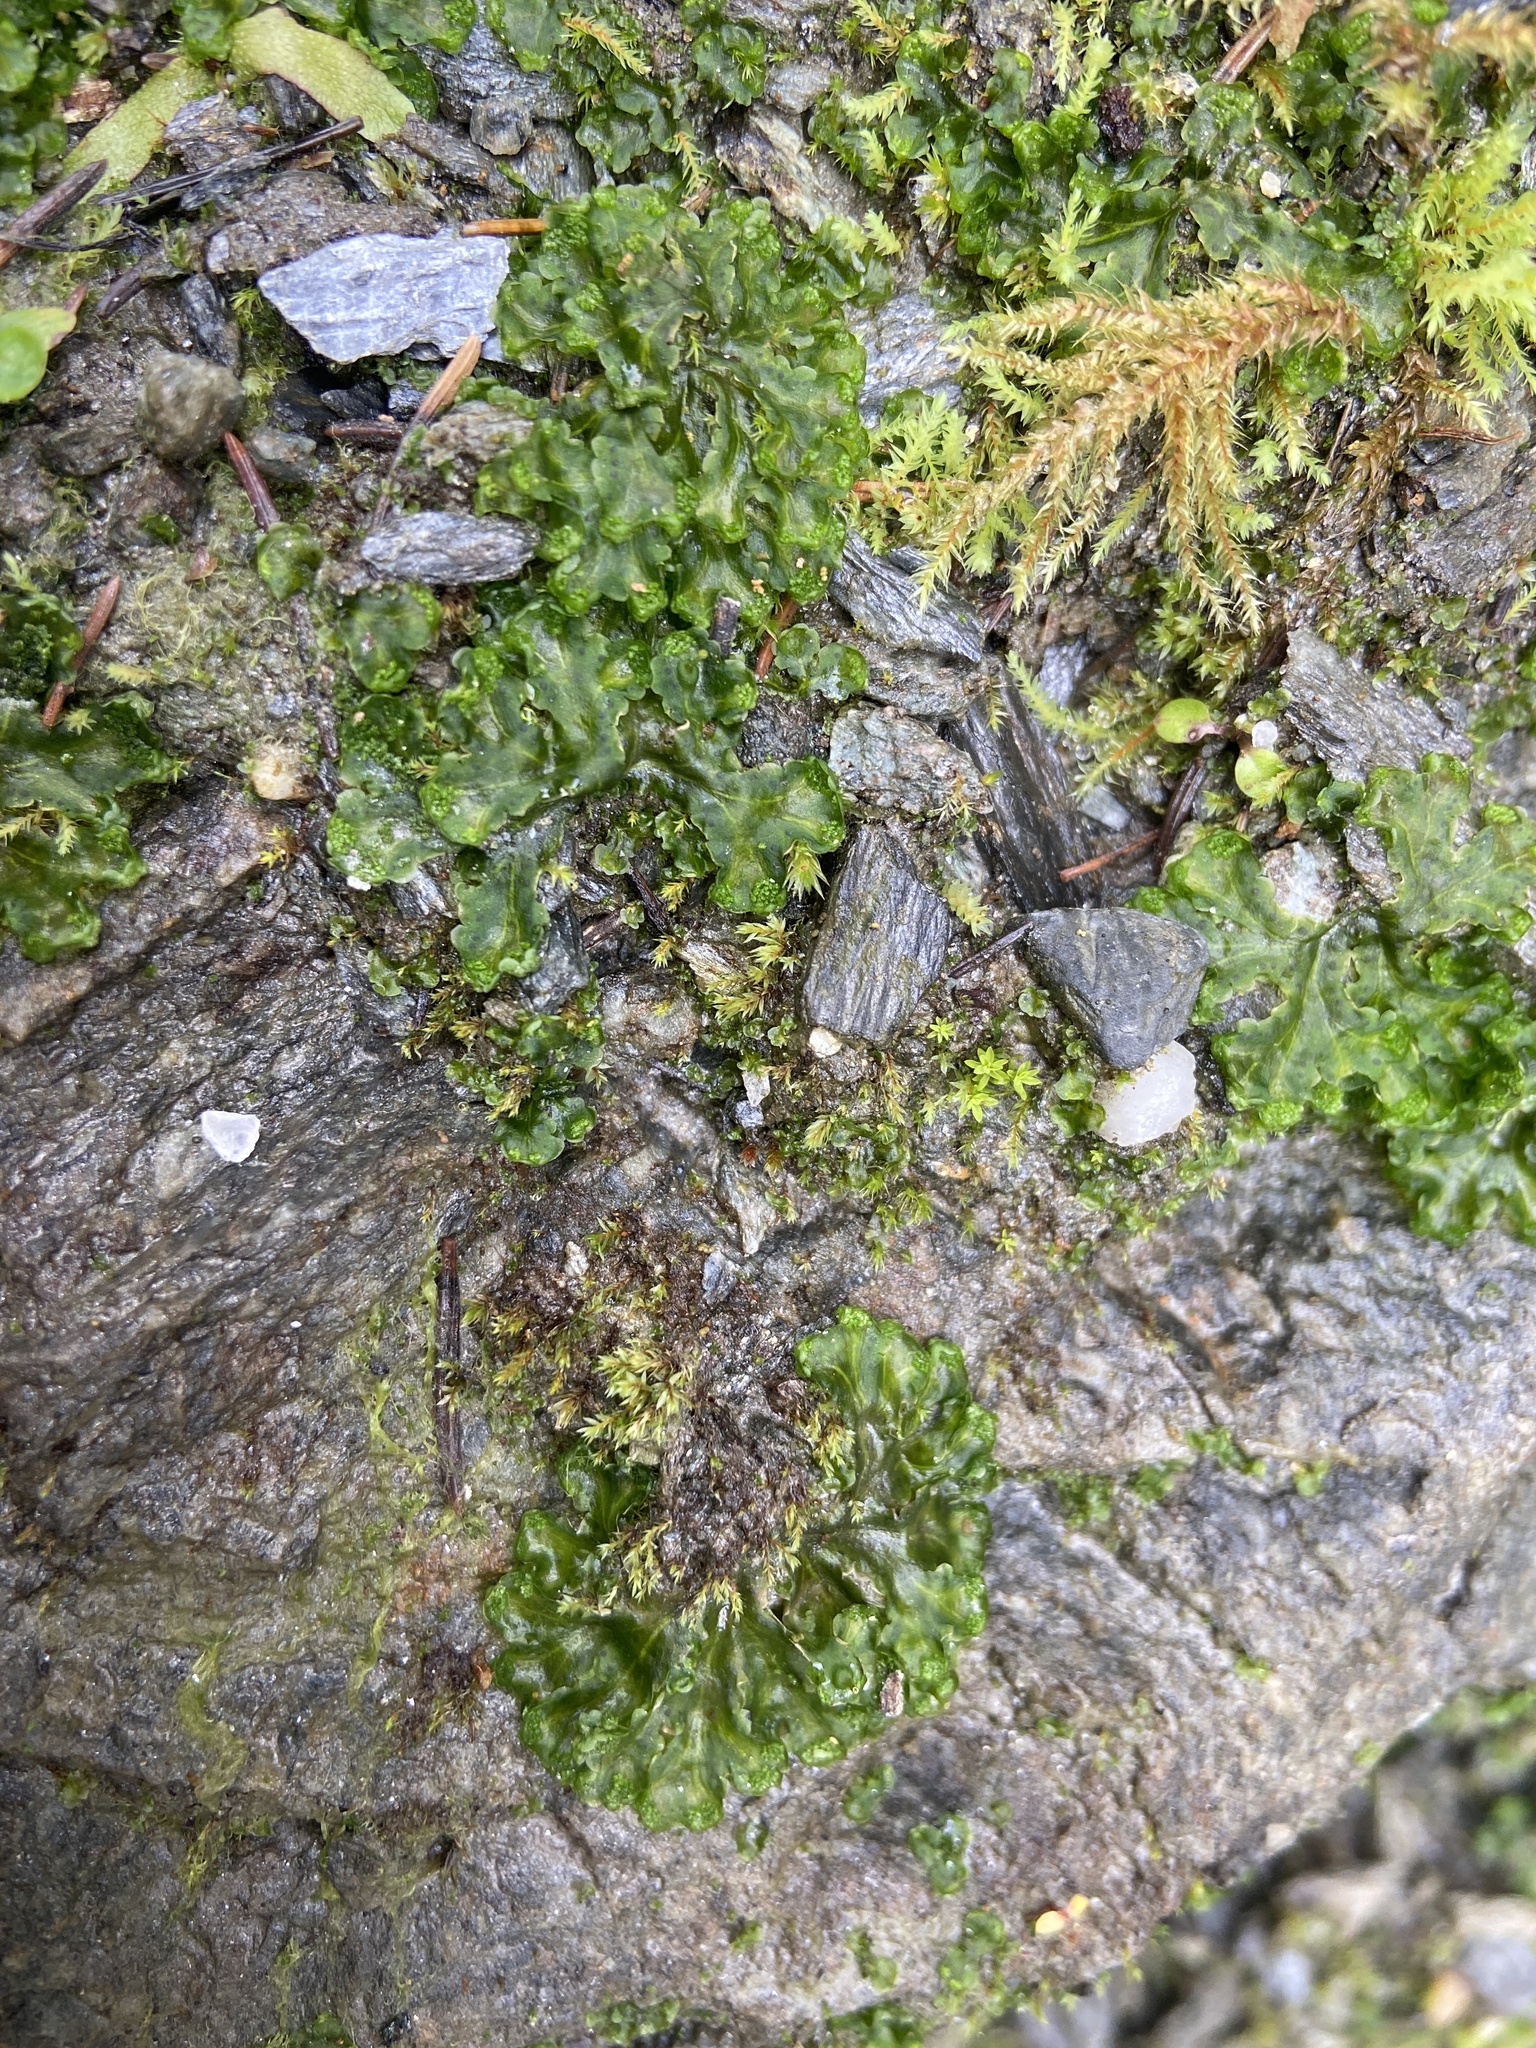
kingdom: Plantae
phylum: Marchantiophyta
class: Marchantiopsida
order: Blasiales
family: Blasiaceae
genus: Blasia
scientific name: Blasia pusilla
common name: Common kettlewort
